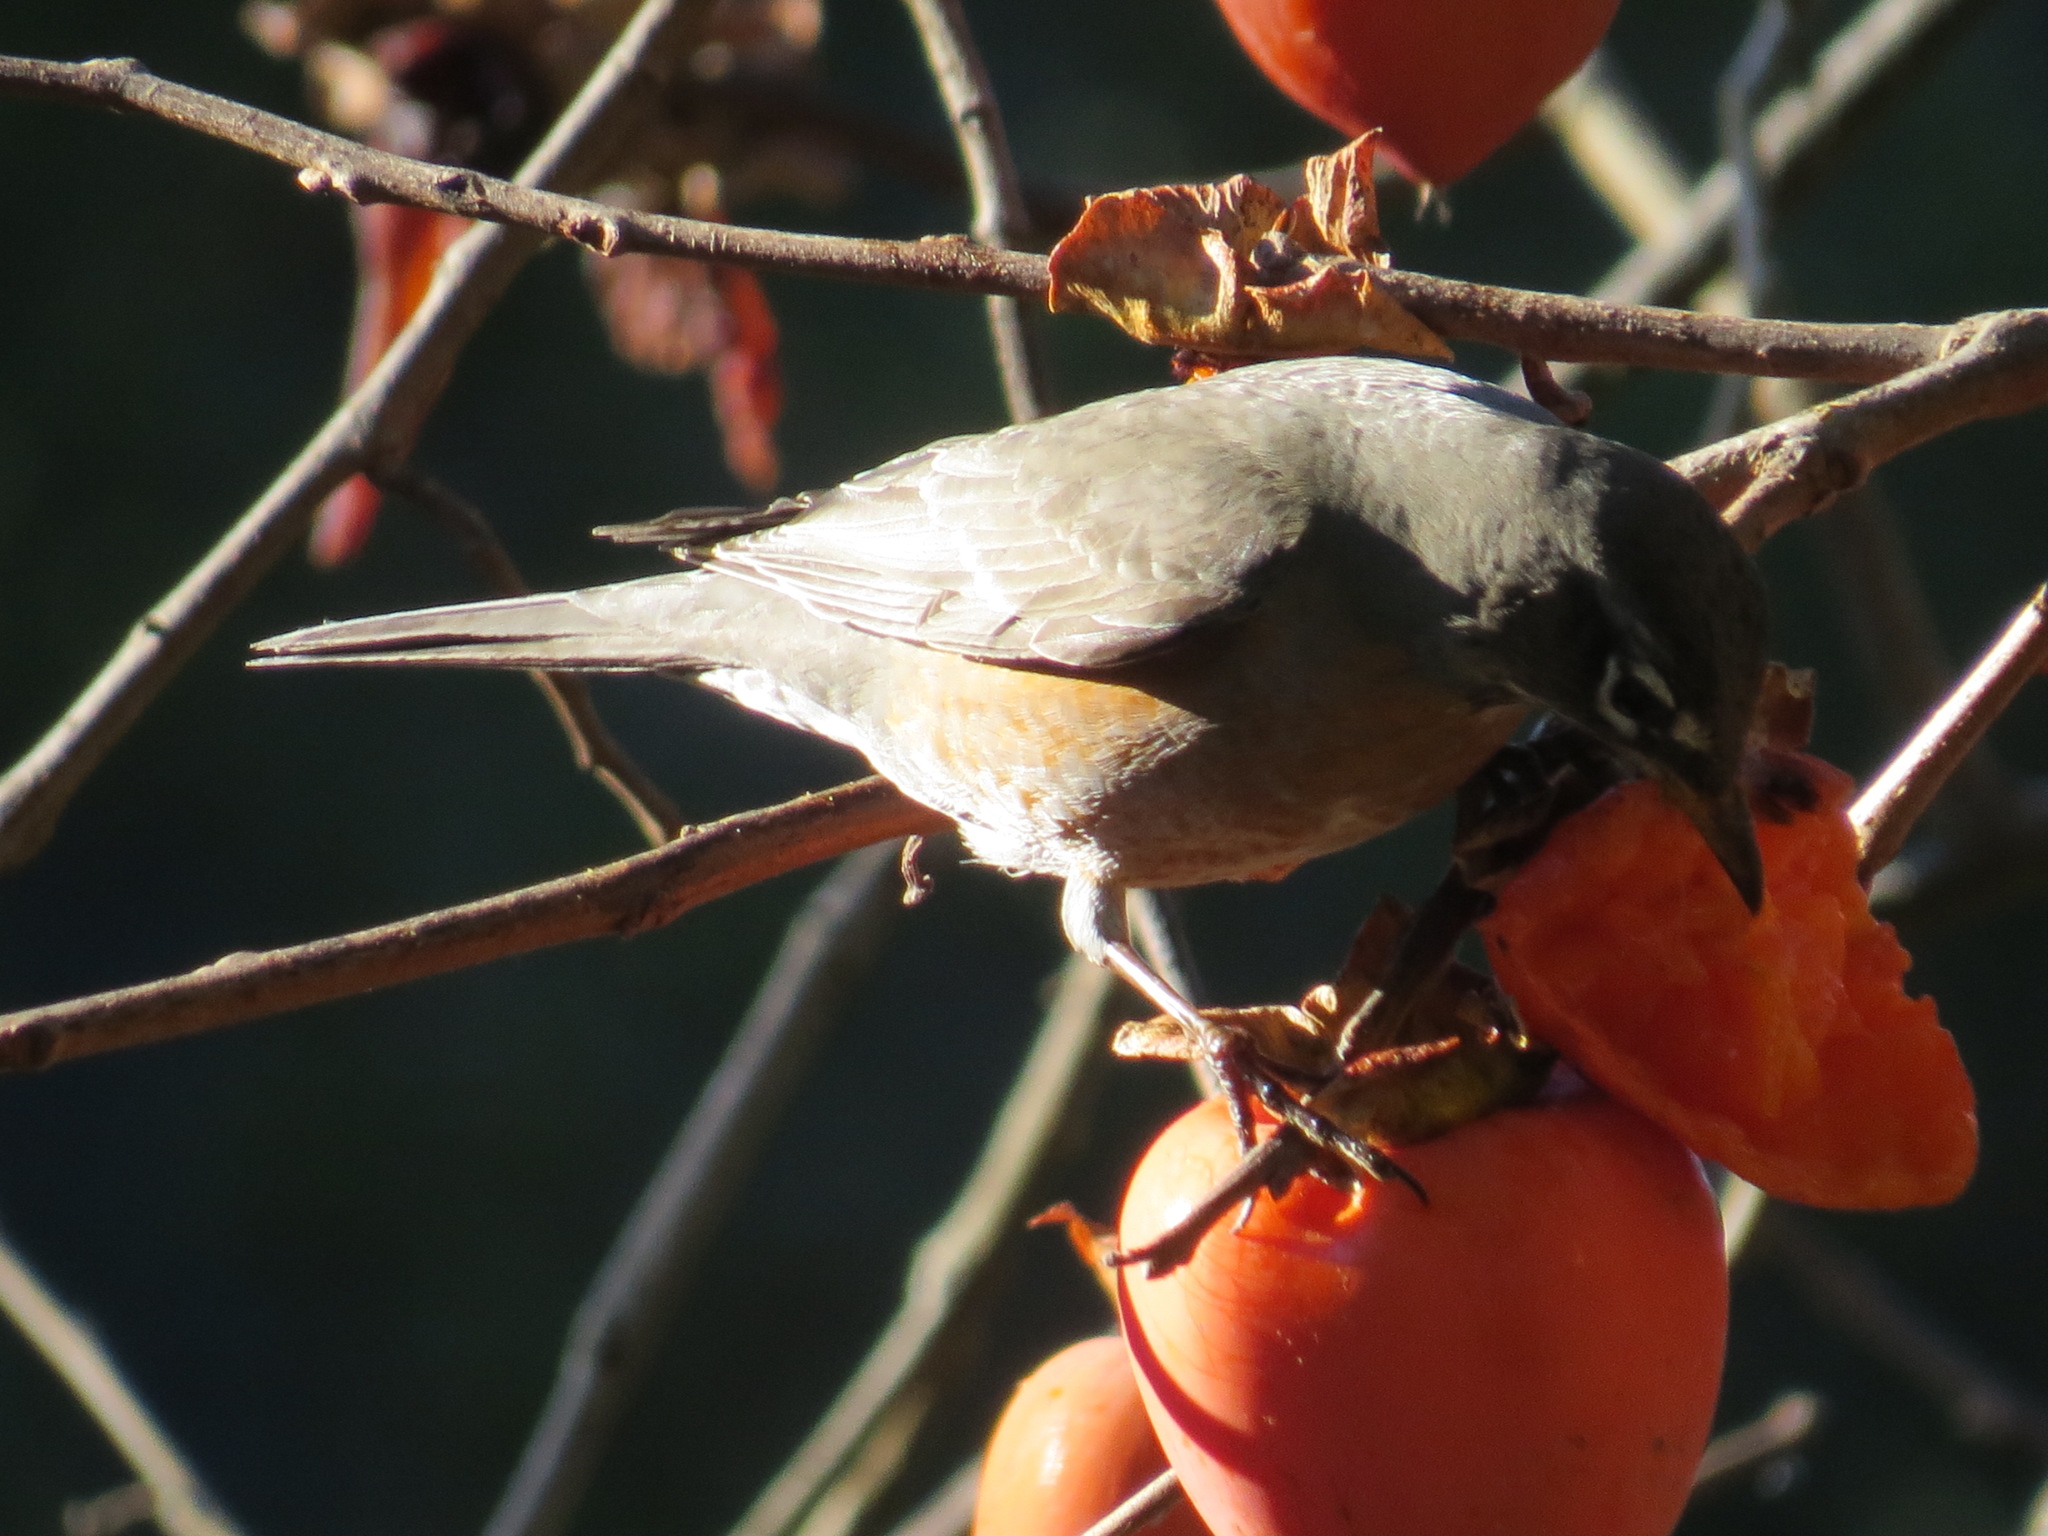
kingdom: Animalia
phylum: Chordata
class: Aves
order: Passeriformes
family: Turdidae
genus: Turdus
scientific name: Turdus migratorius
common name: American robin
